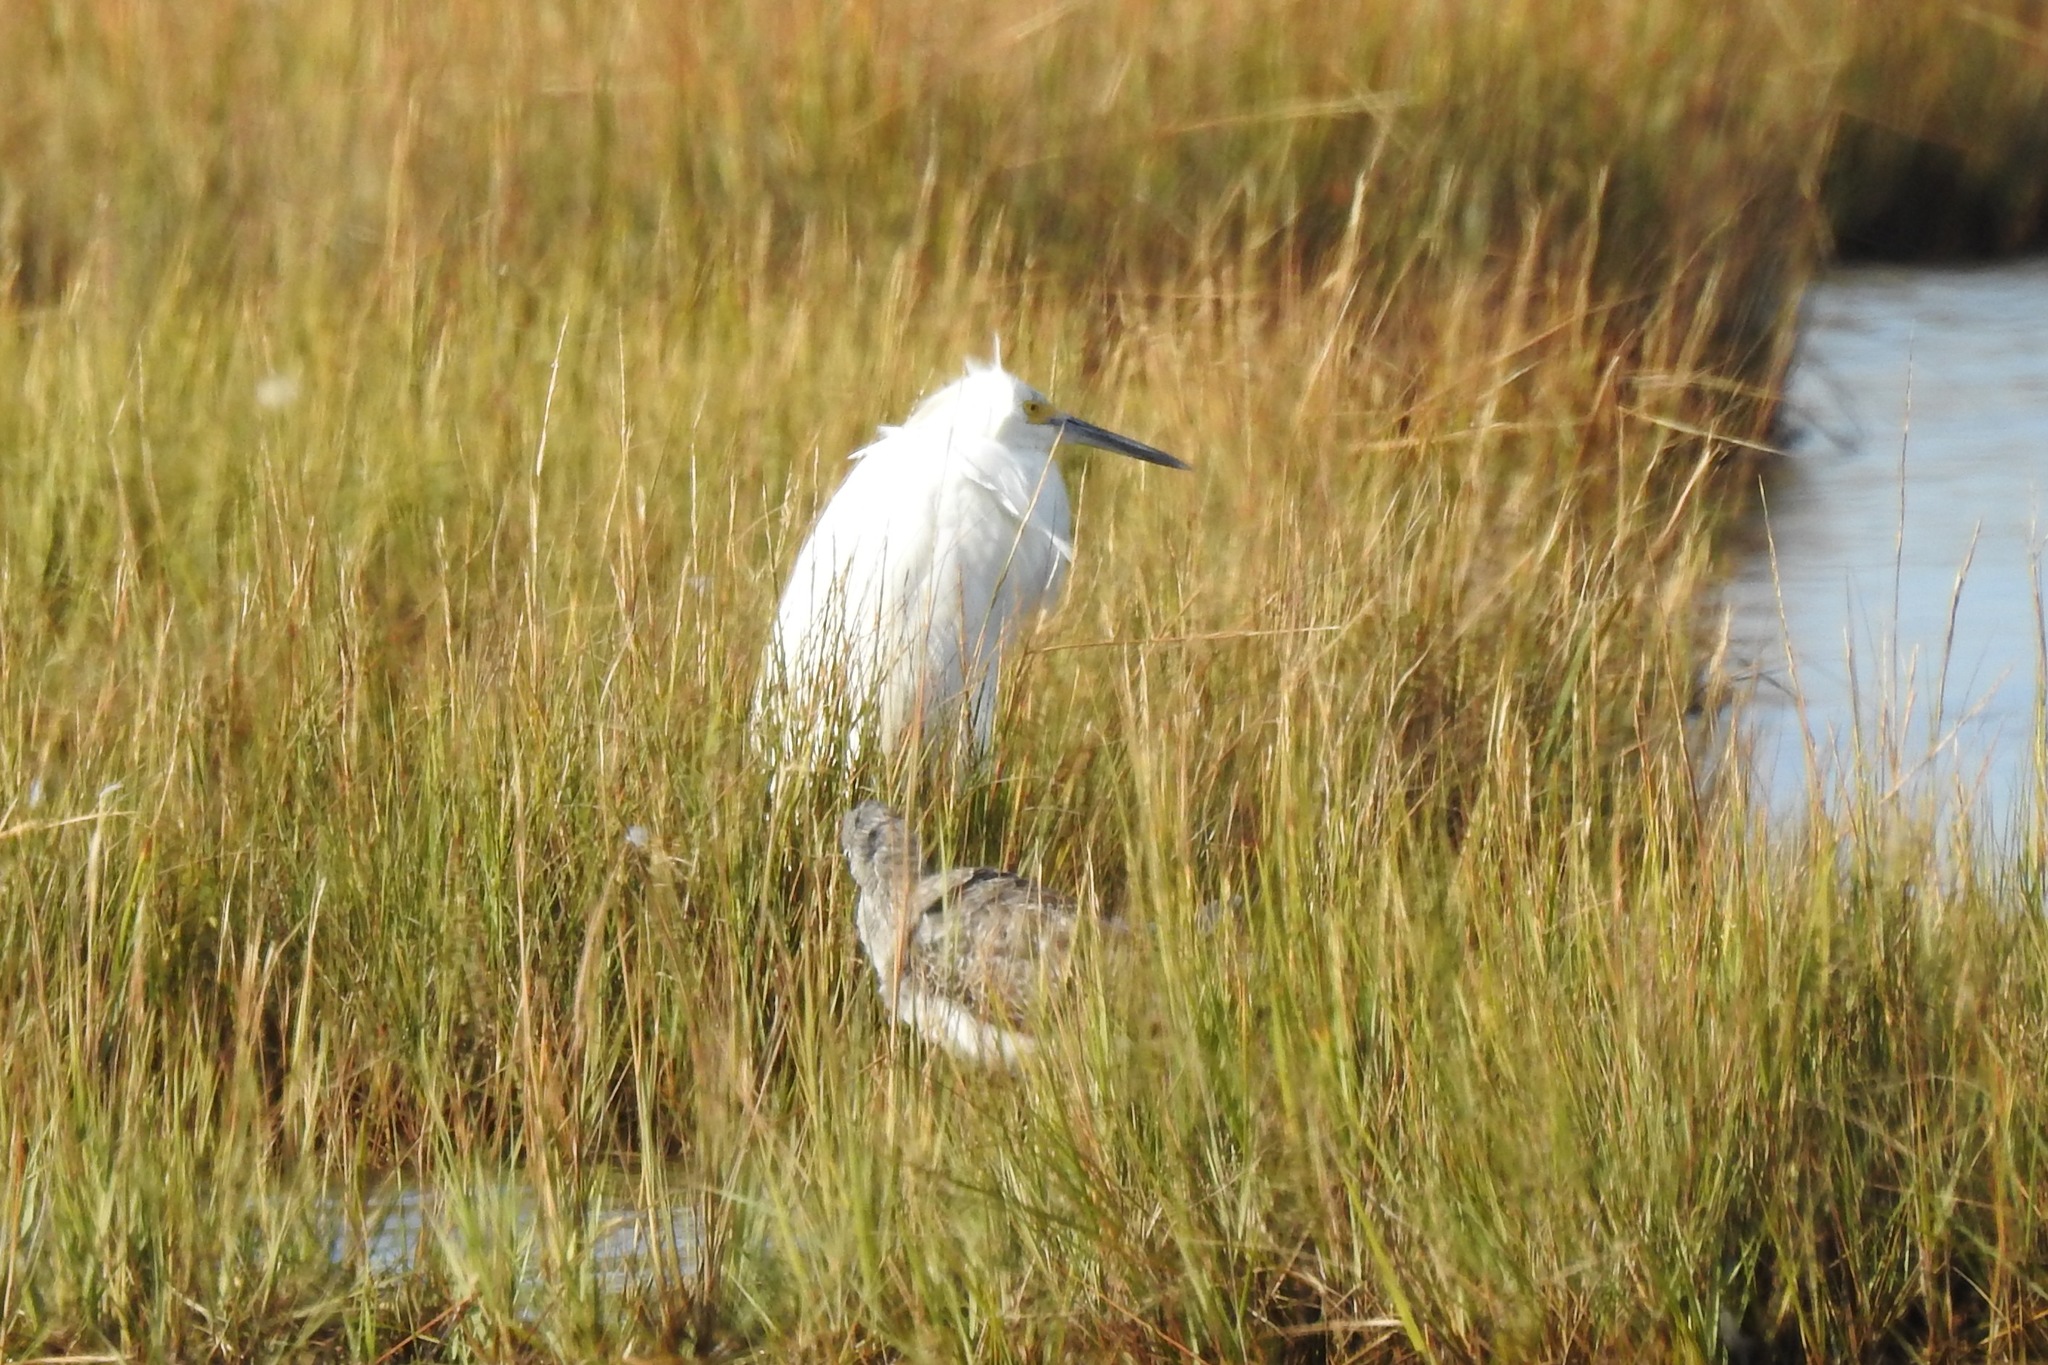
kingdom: Animalia
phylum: Chordata
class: Aves
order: Pelecaniformes
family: Ardeidae
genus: Egretta
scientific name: Egretta thula
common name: Snowy egret
